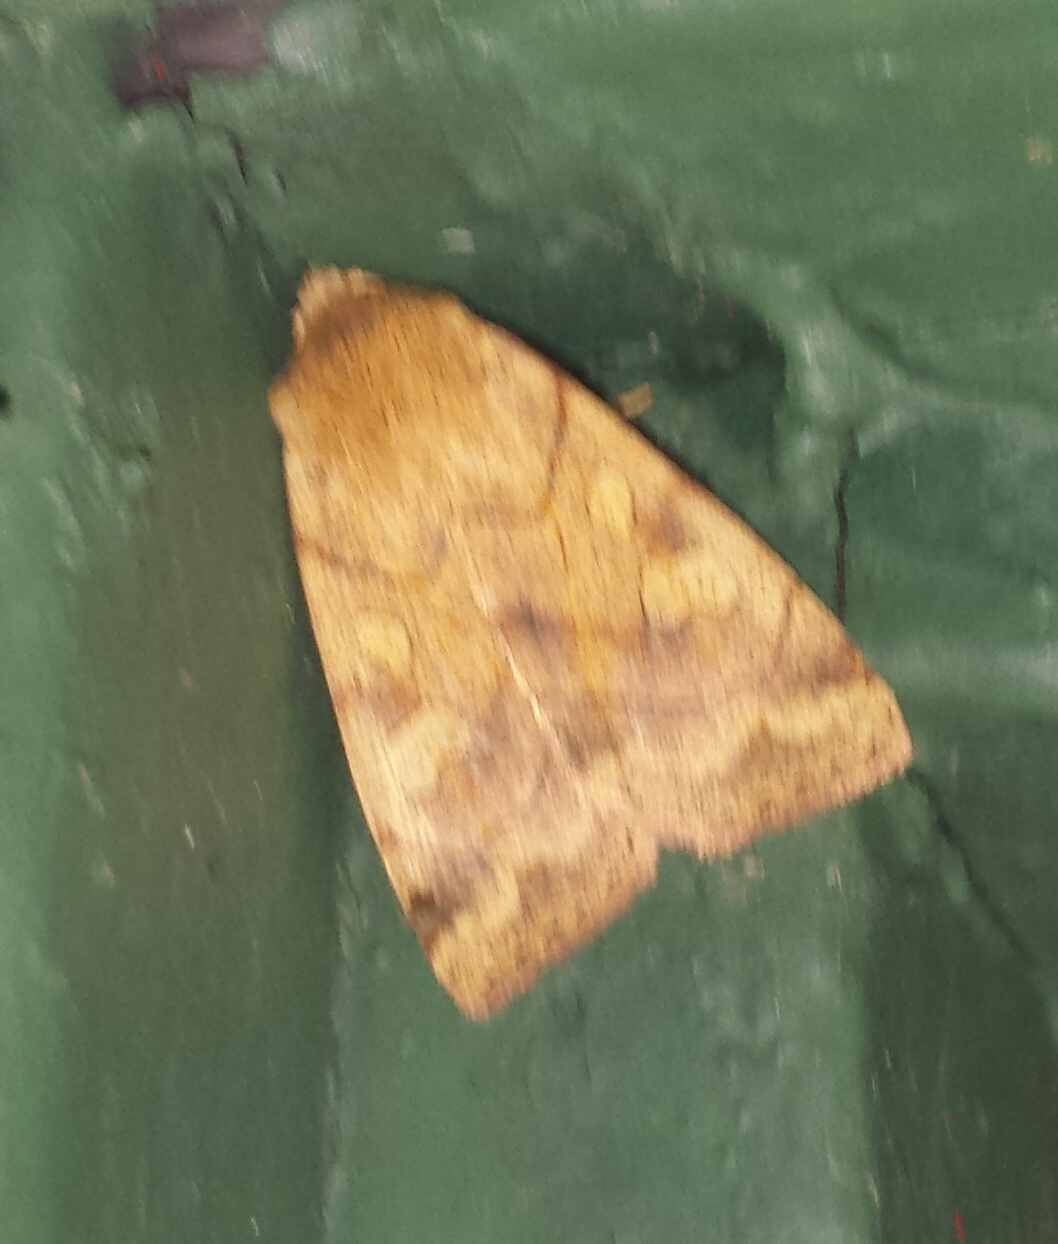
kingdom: Animalia
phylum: Arthropoda
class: Insecta
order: Lepidoptera
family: Noctuidae
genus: Enargia
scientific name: Enargia decolor
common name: Aspen twoleaf tier moth
